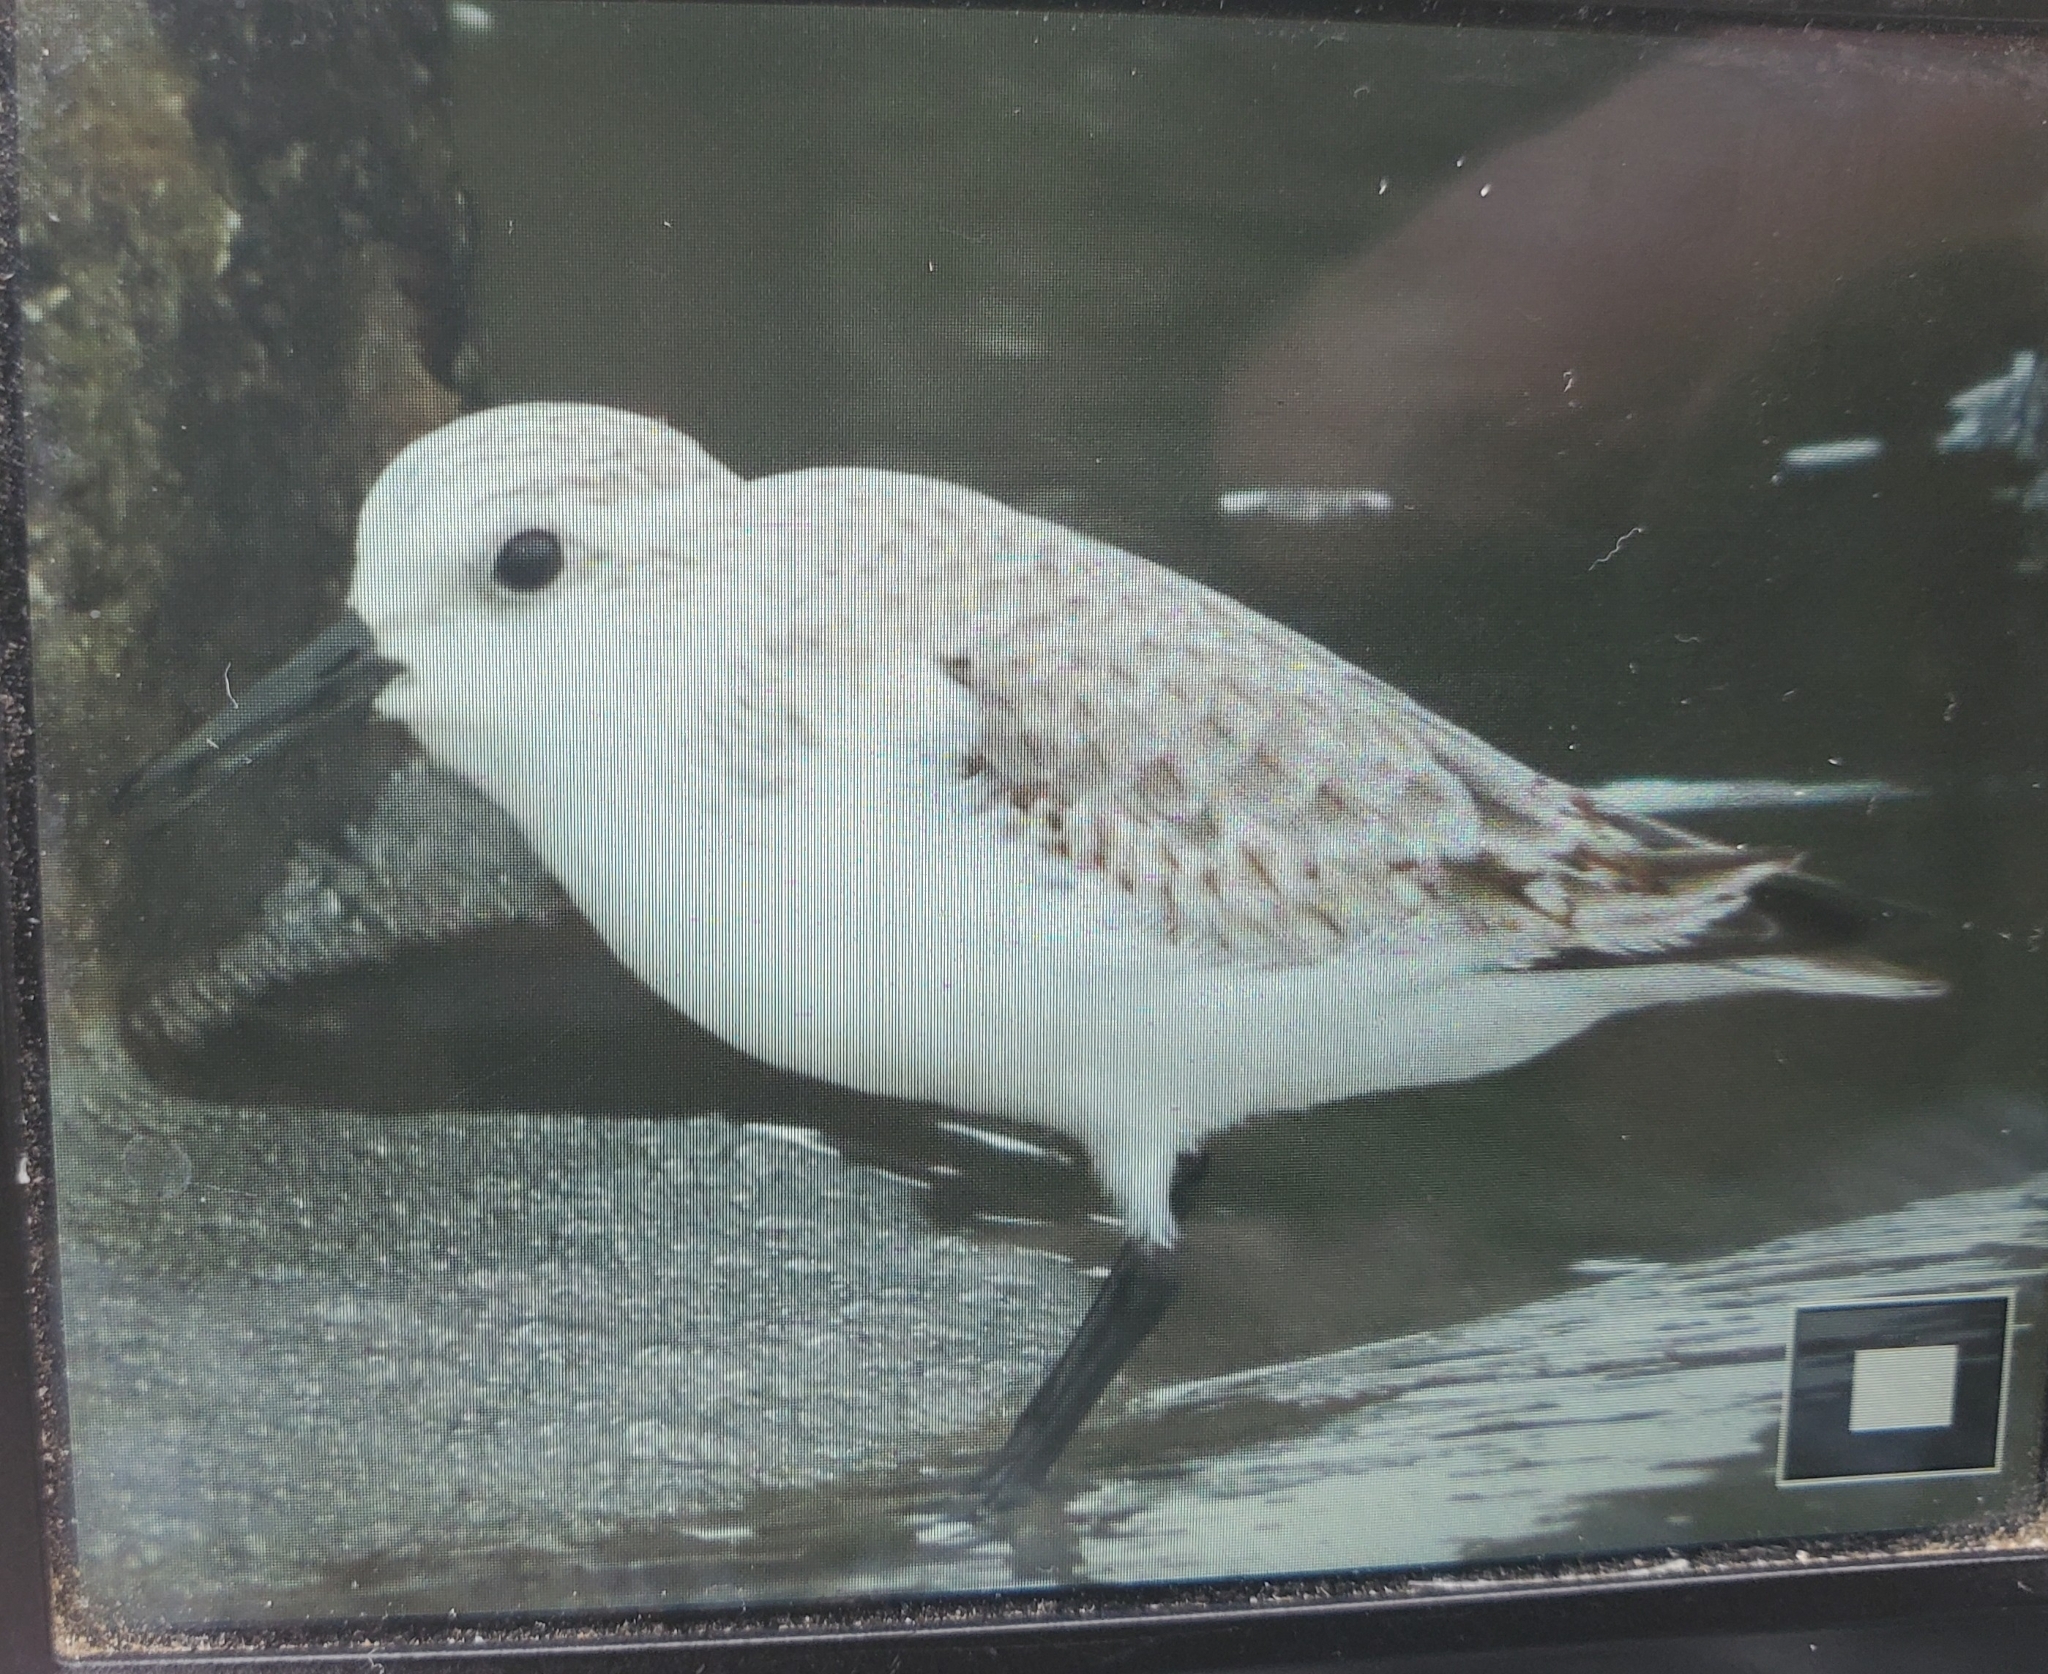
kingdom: Animalia
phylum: Chordata
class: Aves
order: Charadriiformes
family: Scolopacidae
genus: Calidris
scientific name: Calidris alba
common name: Sanderling
